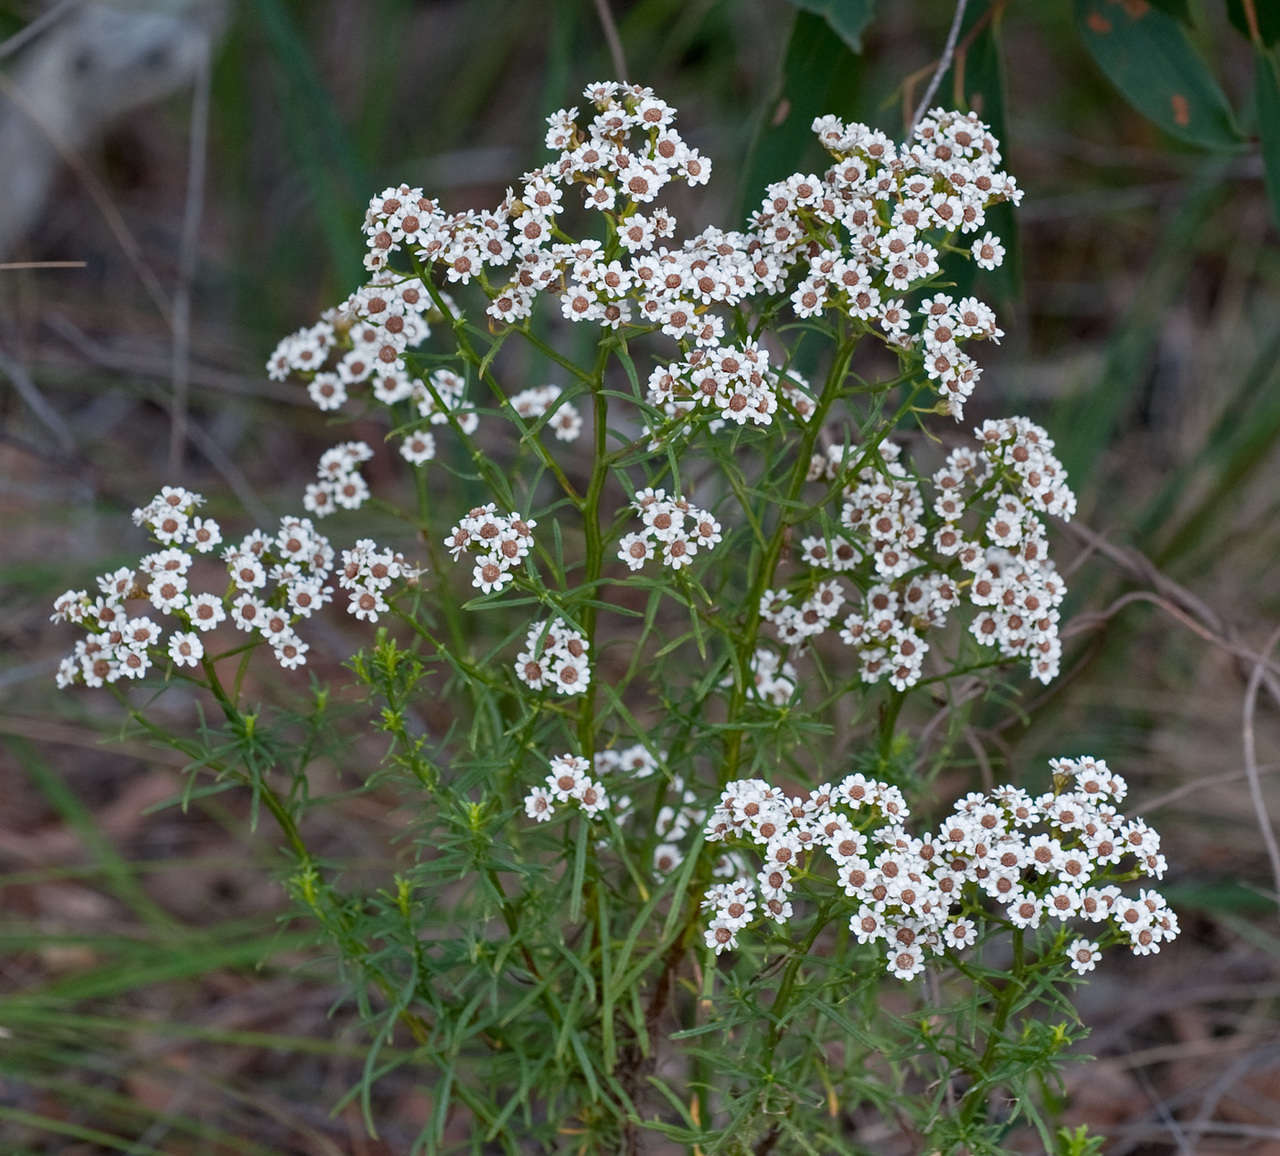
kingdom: Plantae
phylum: Tracheophyta
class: Magnoliopsida
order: Asterales
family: Asteraceae
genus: Ixodia
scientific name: Ixodia achillaeoides
